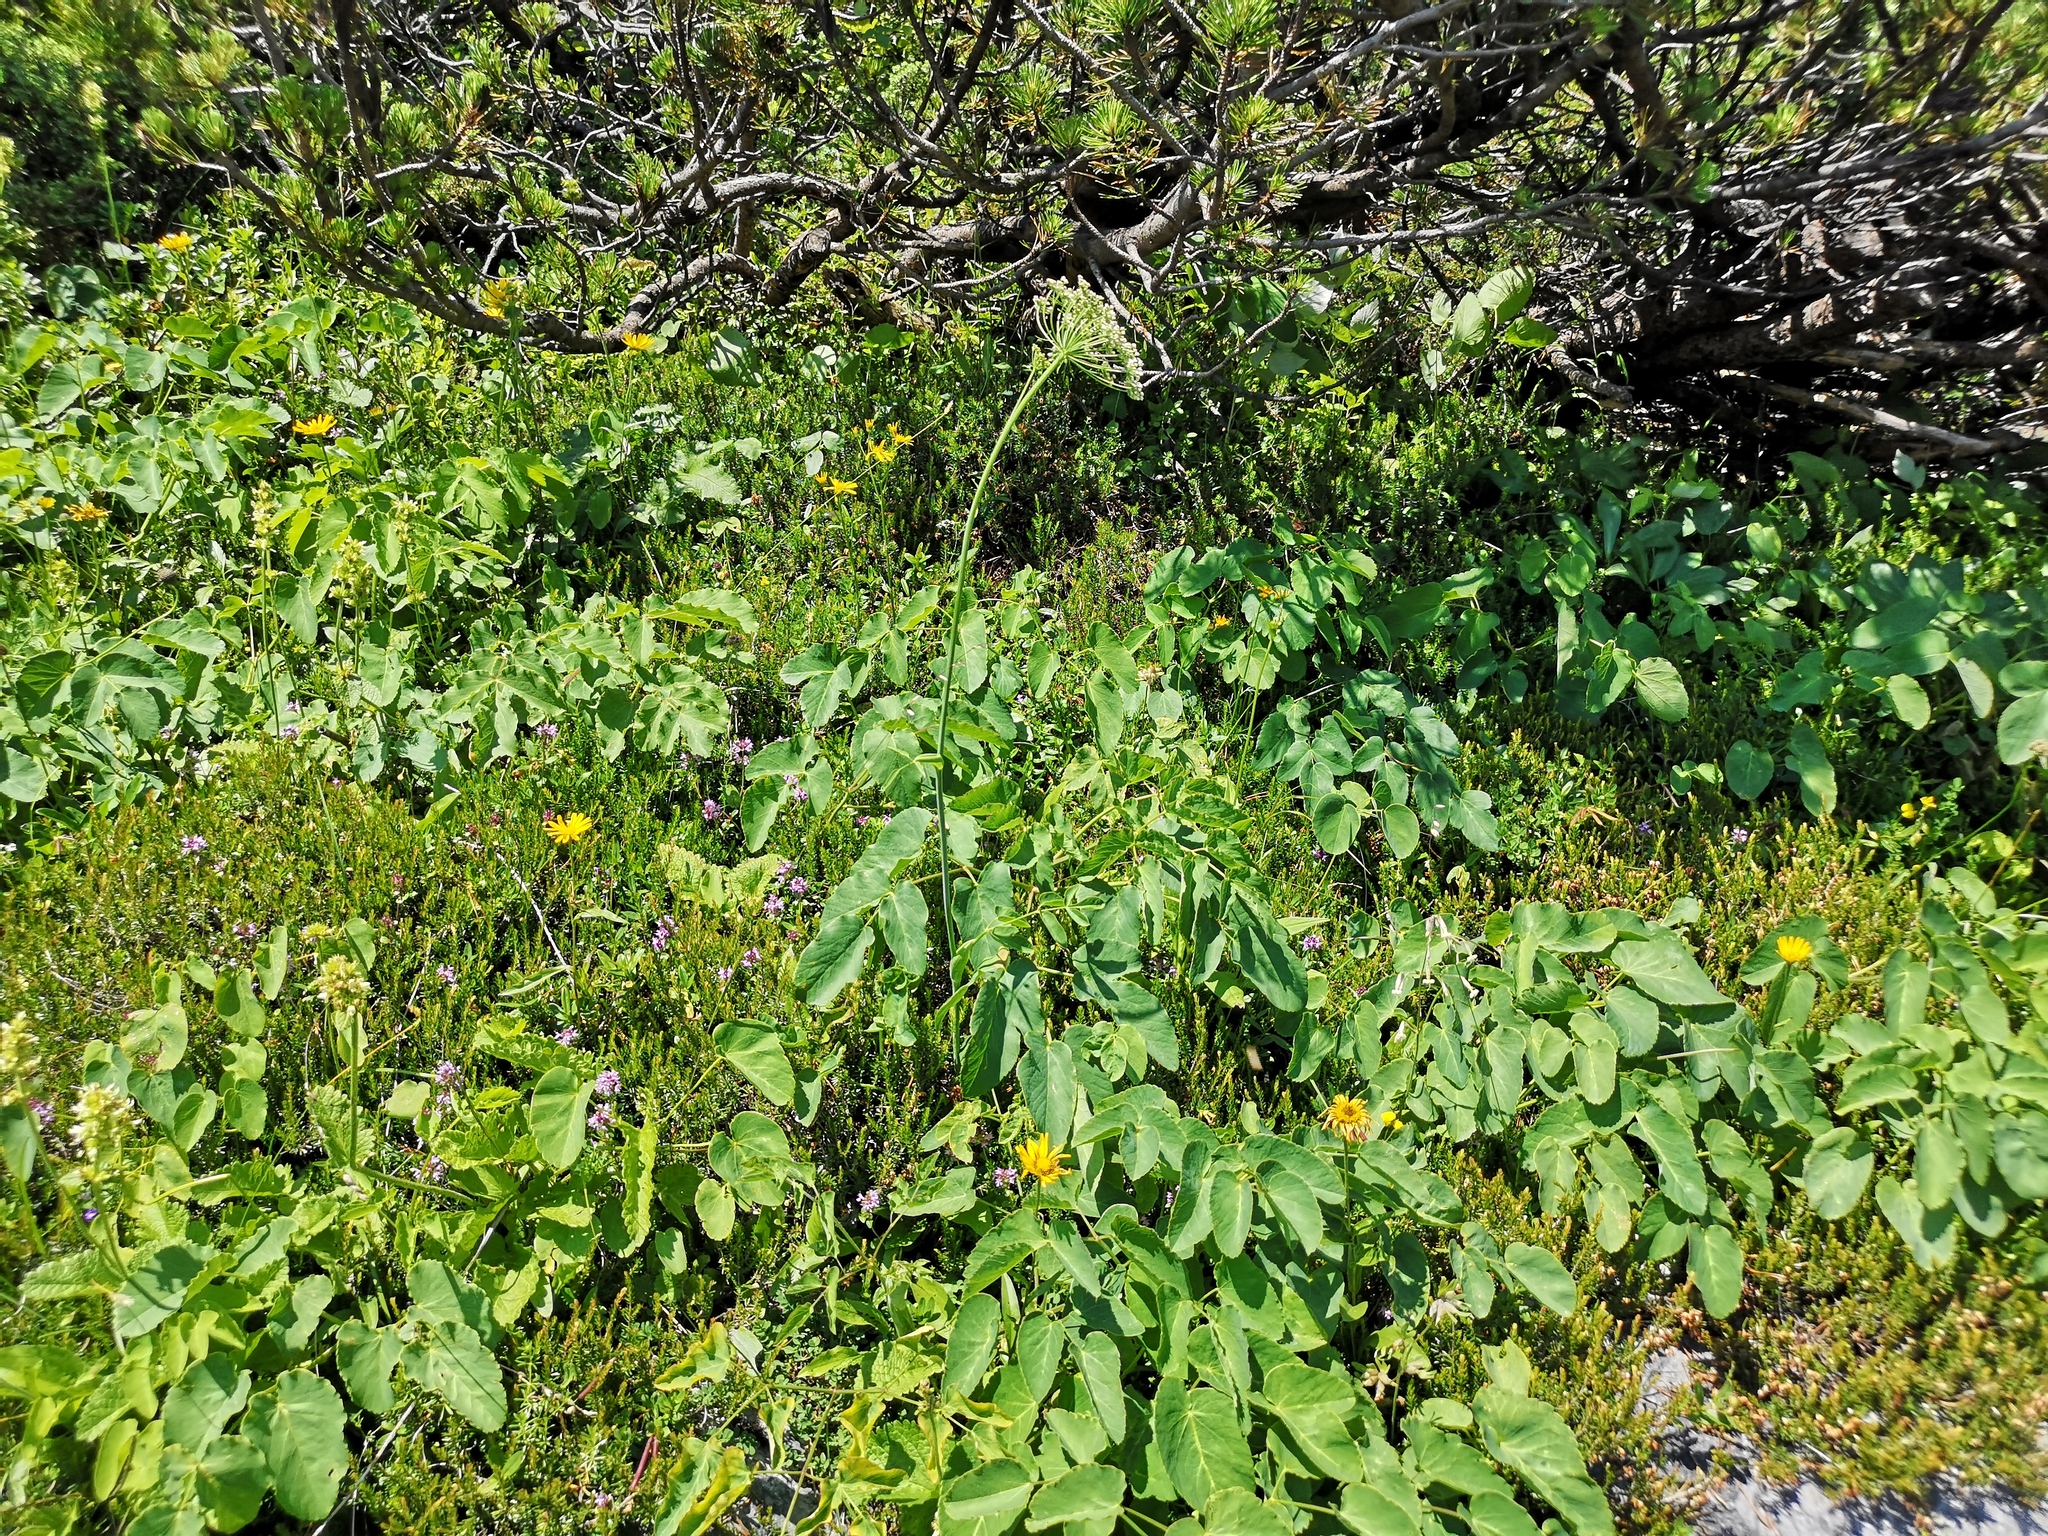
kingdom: Plantae
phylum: Tracheophyta
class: Magnoliopsida
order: Apiales
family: Apiaceae
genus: Laserpitium
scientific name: Laserpitium latifolium
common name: Broadleaf sermountain
